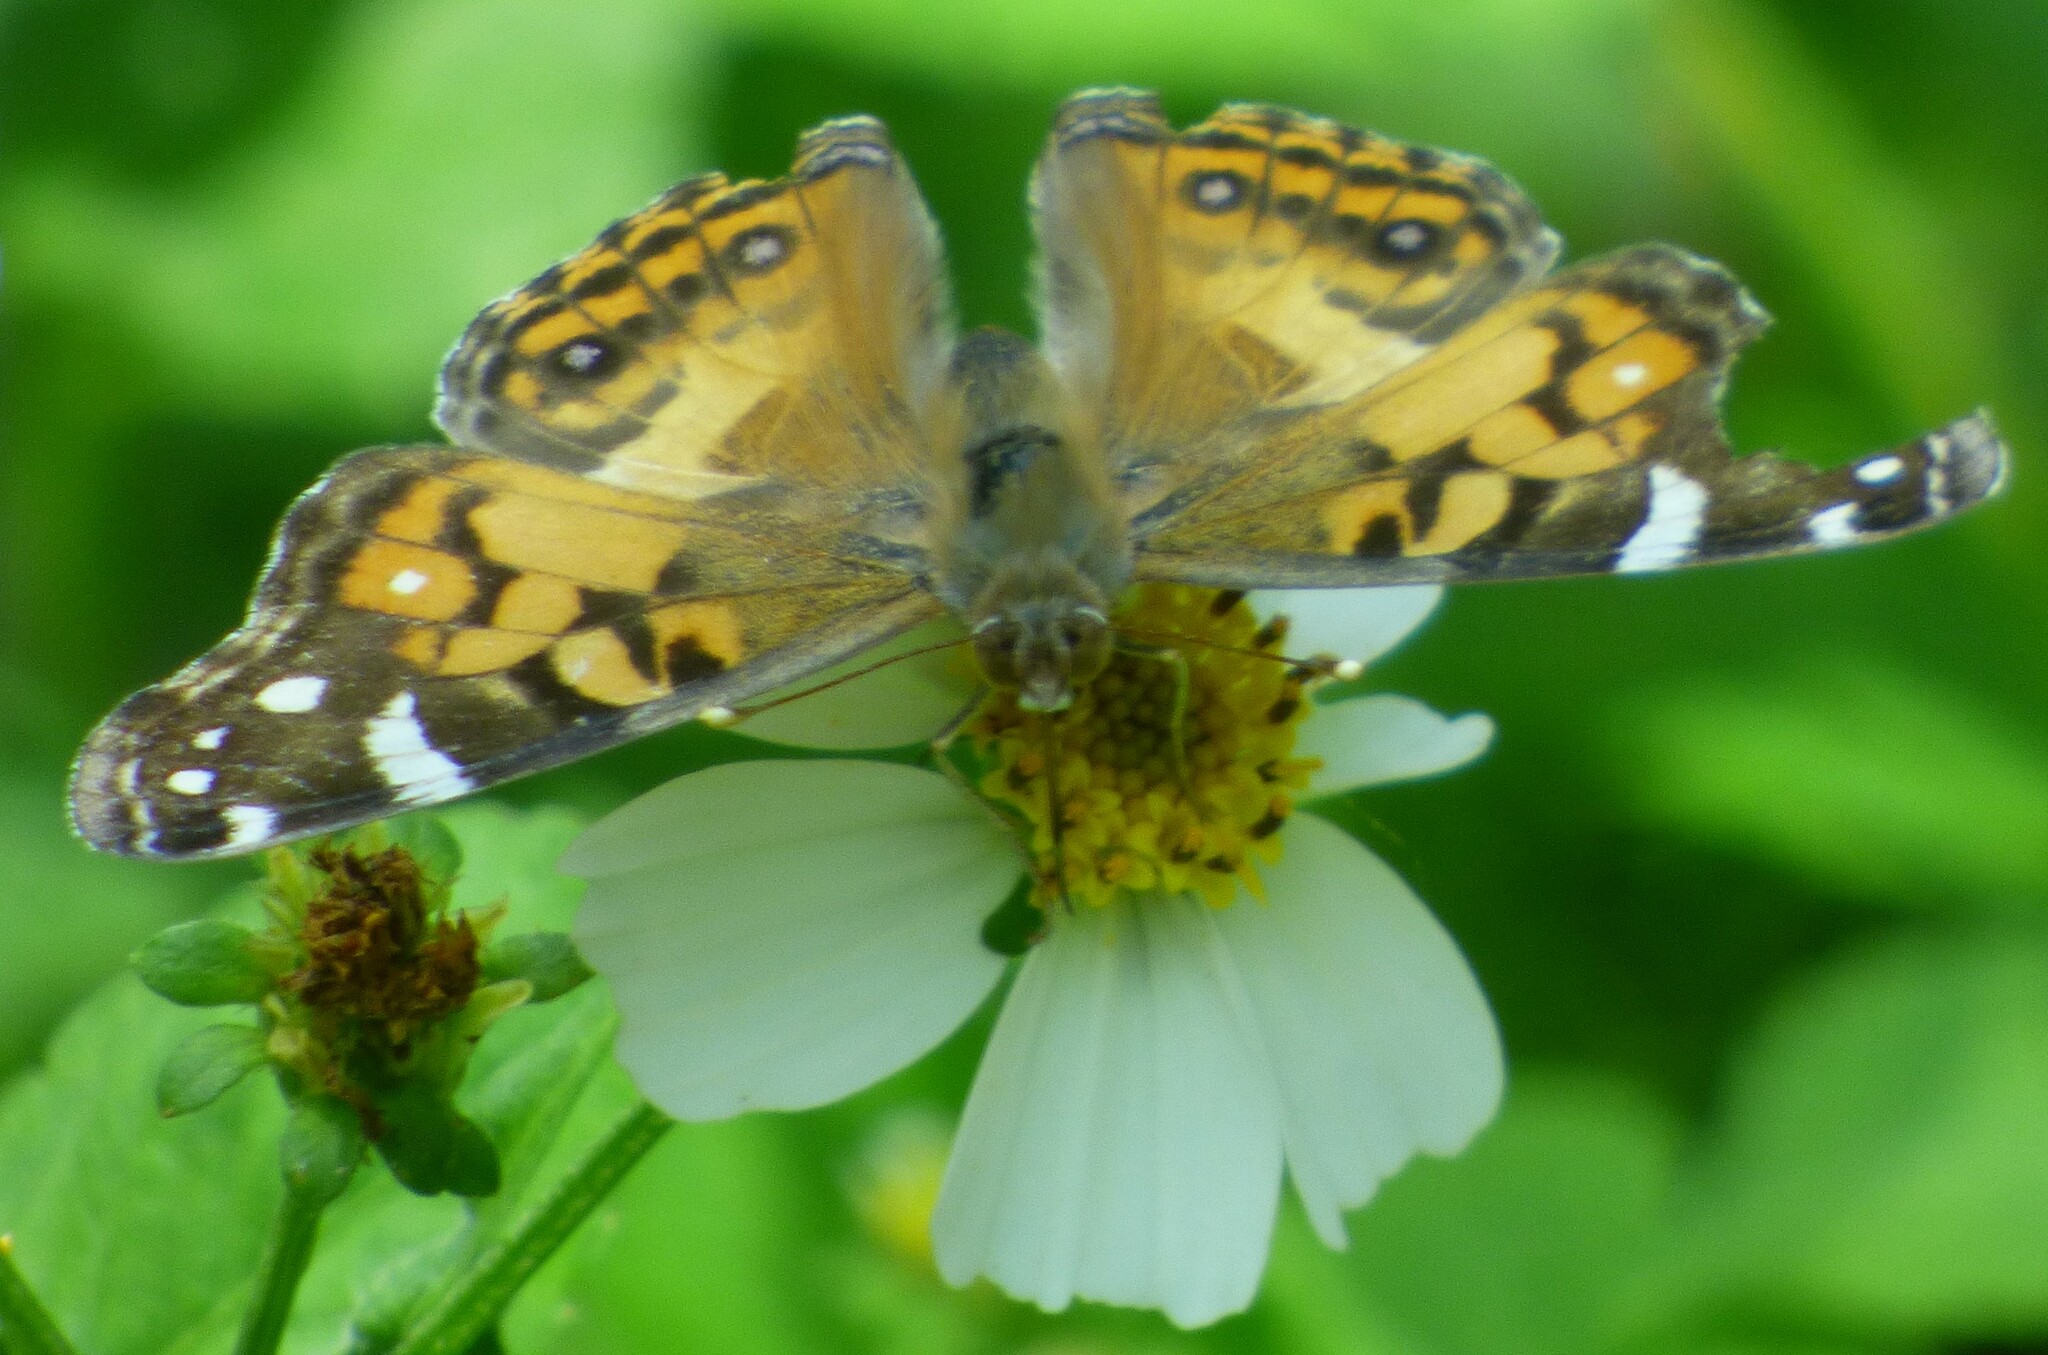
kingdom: Animalia
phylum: Arthropoda
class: Insecta
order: Lepidoptera
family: Nymphalidae
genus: Vanessa
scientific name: Vanessa virginiensis
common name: American lady
